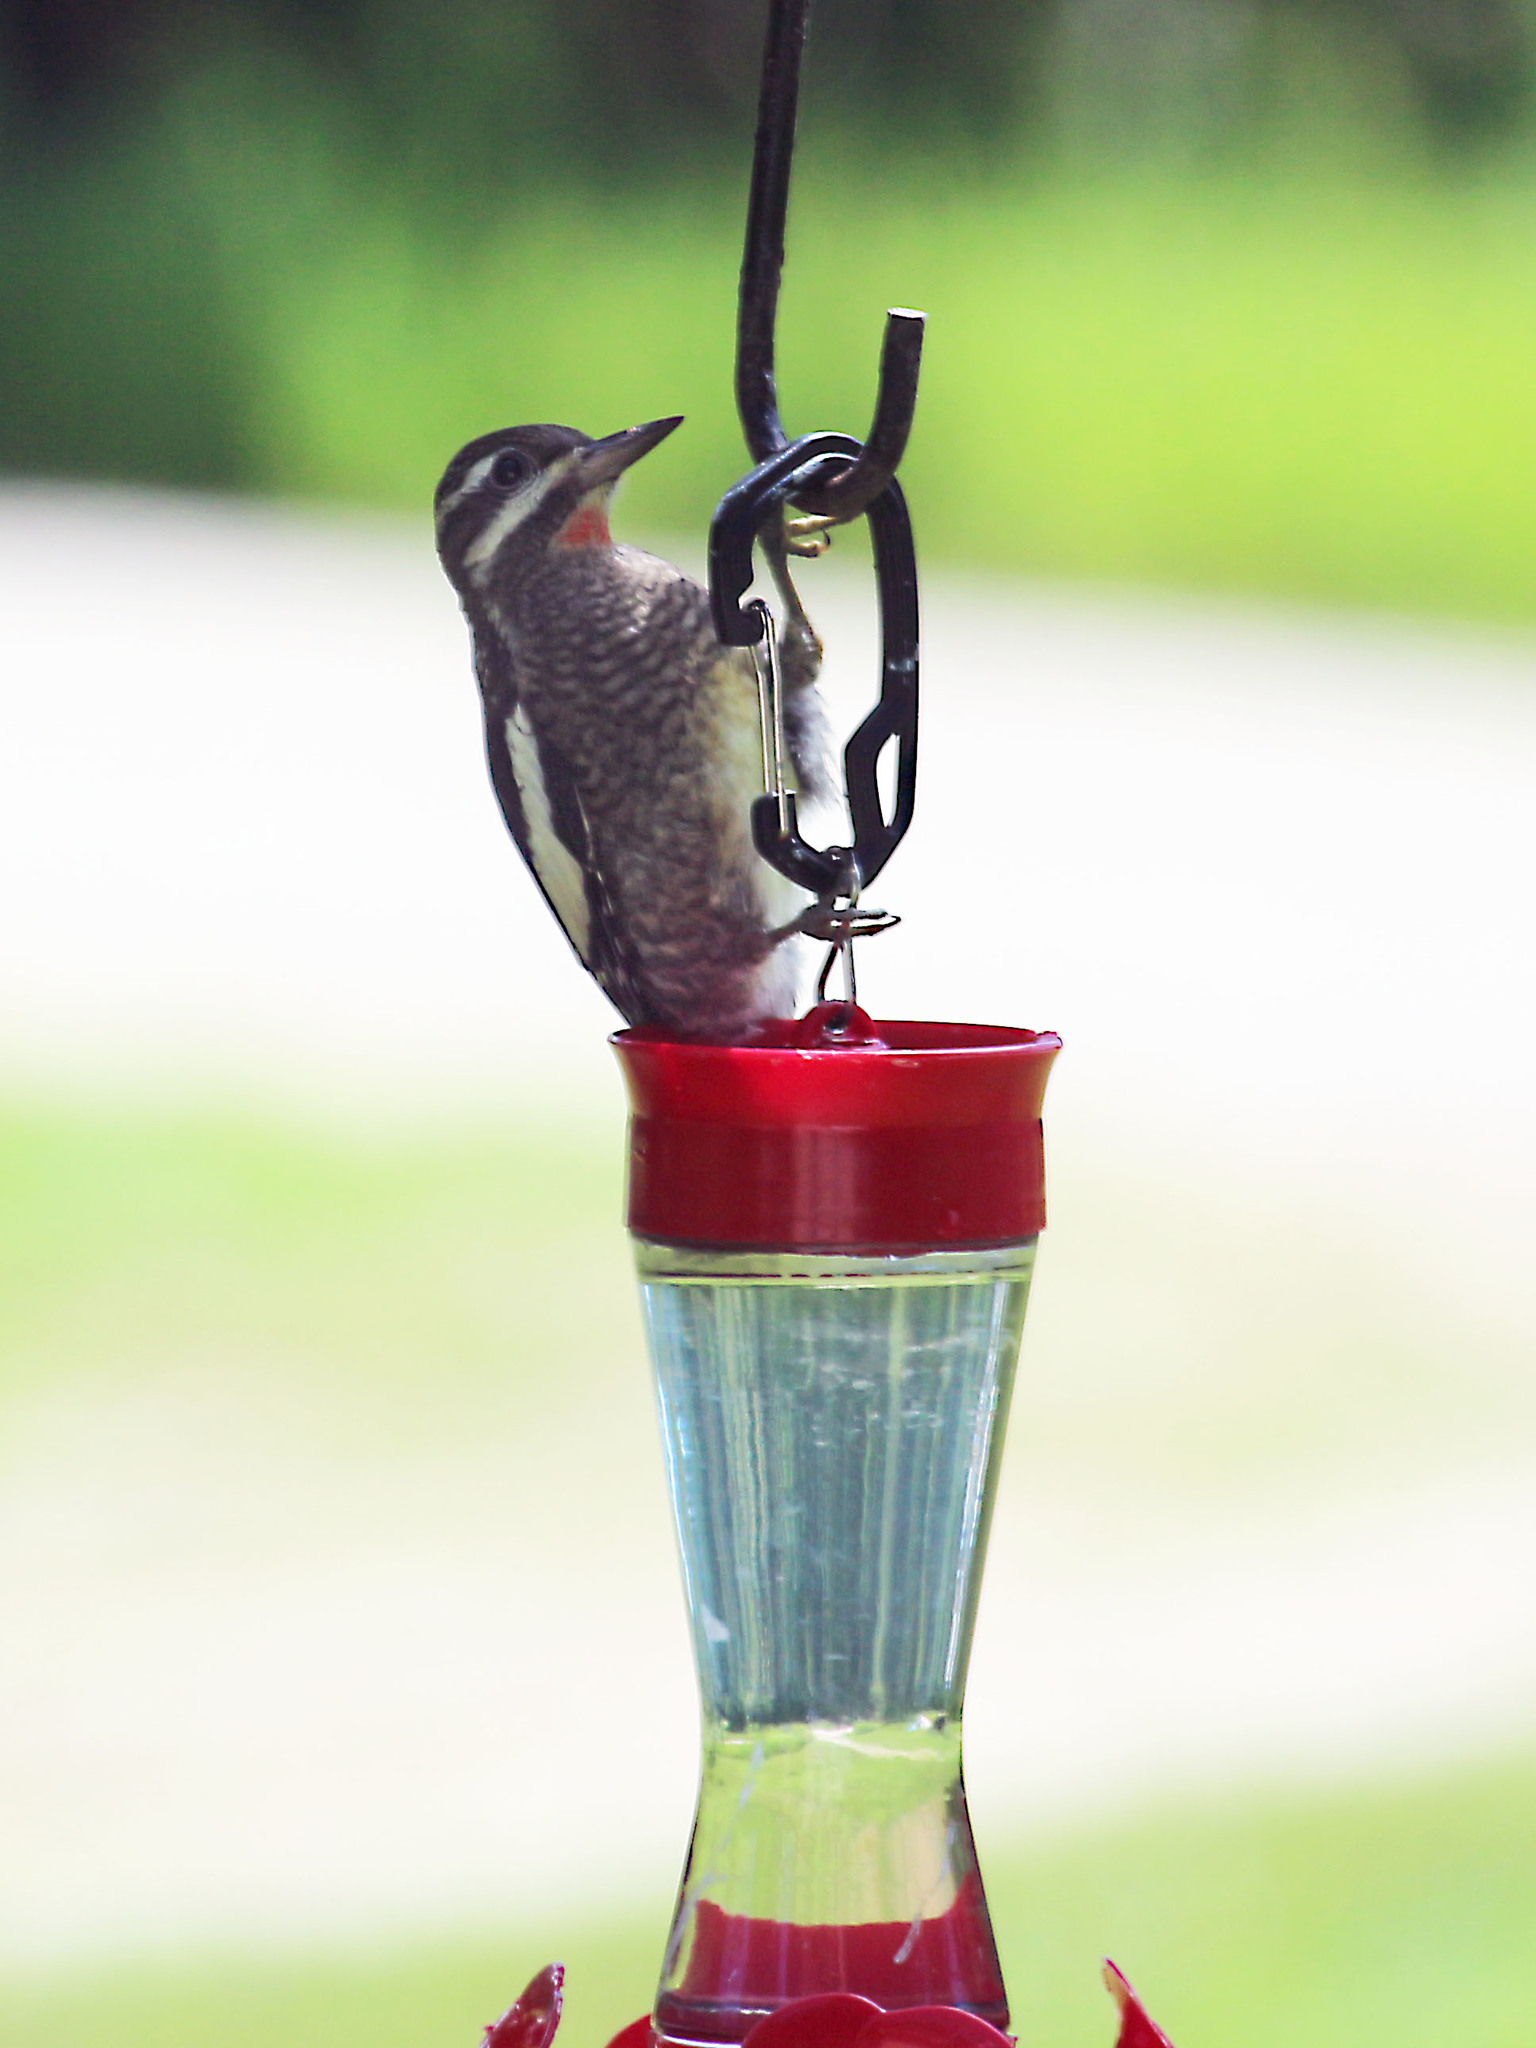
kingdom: Animalia
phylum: Chordata
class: Aves
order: Piciformes
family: Picidae
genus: Sphyrapicus
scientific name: Sphyrapicus varius
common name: Yellow-bellied sapsucker
